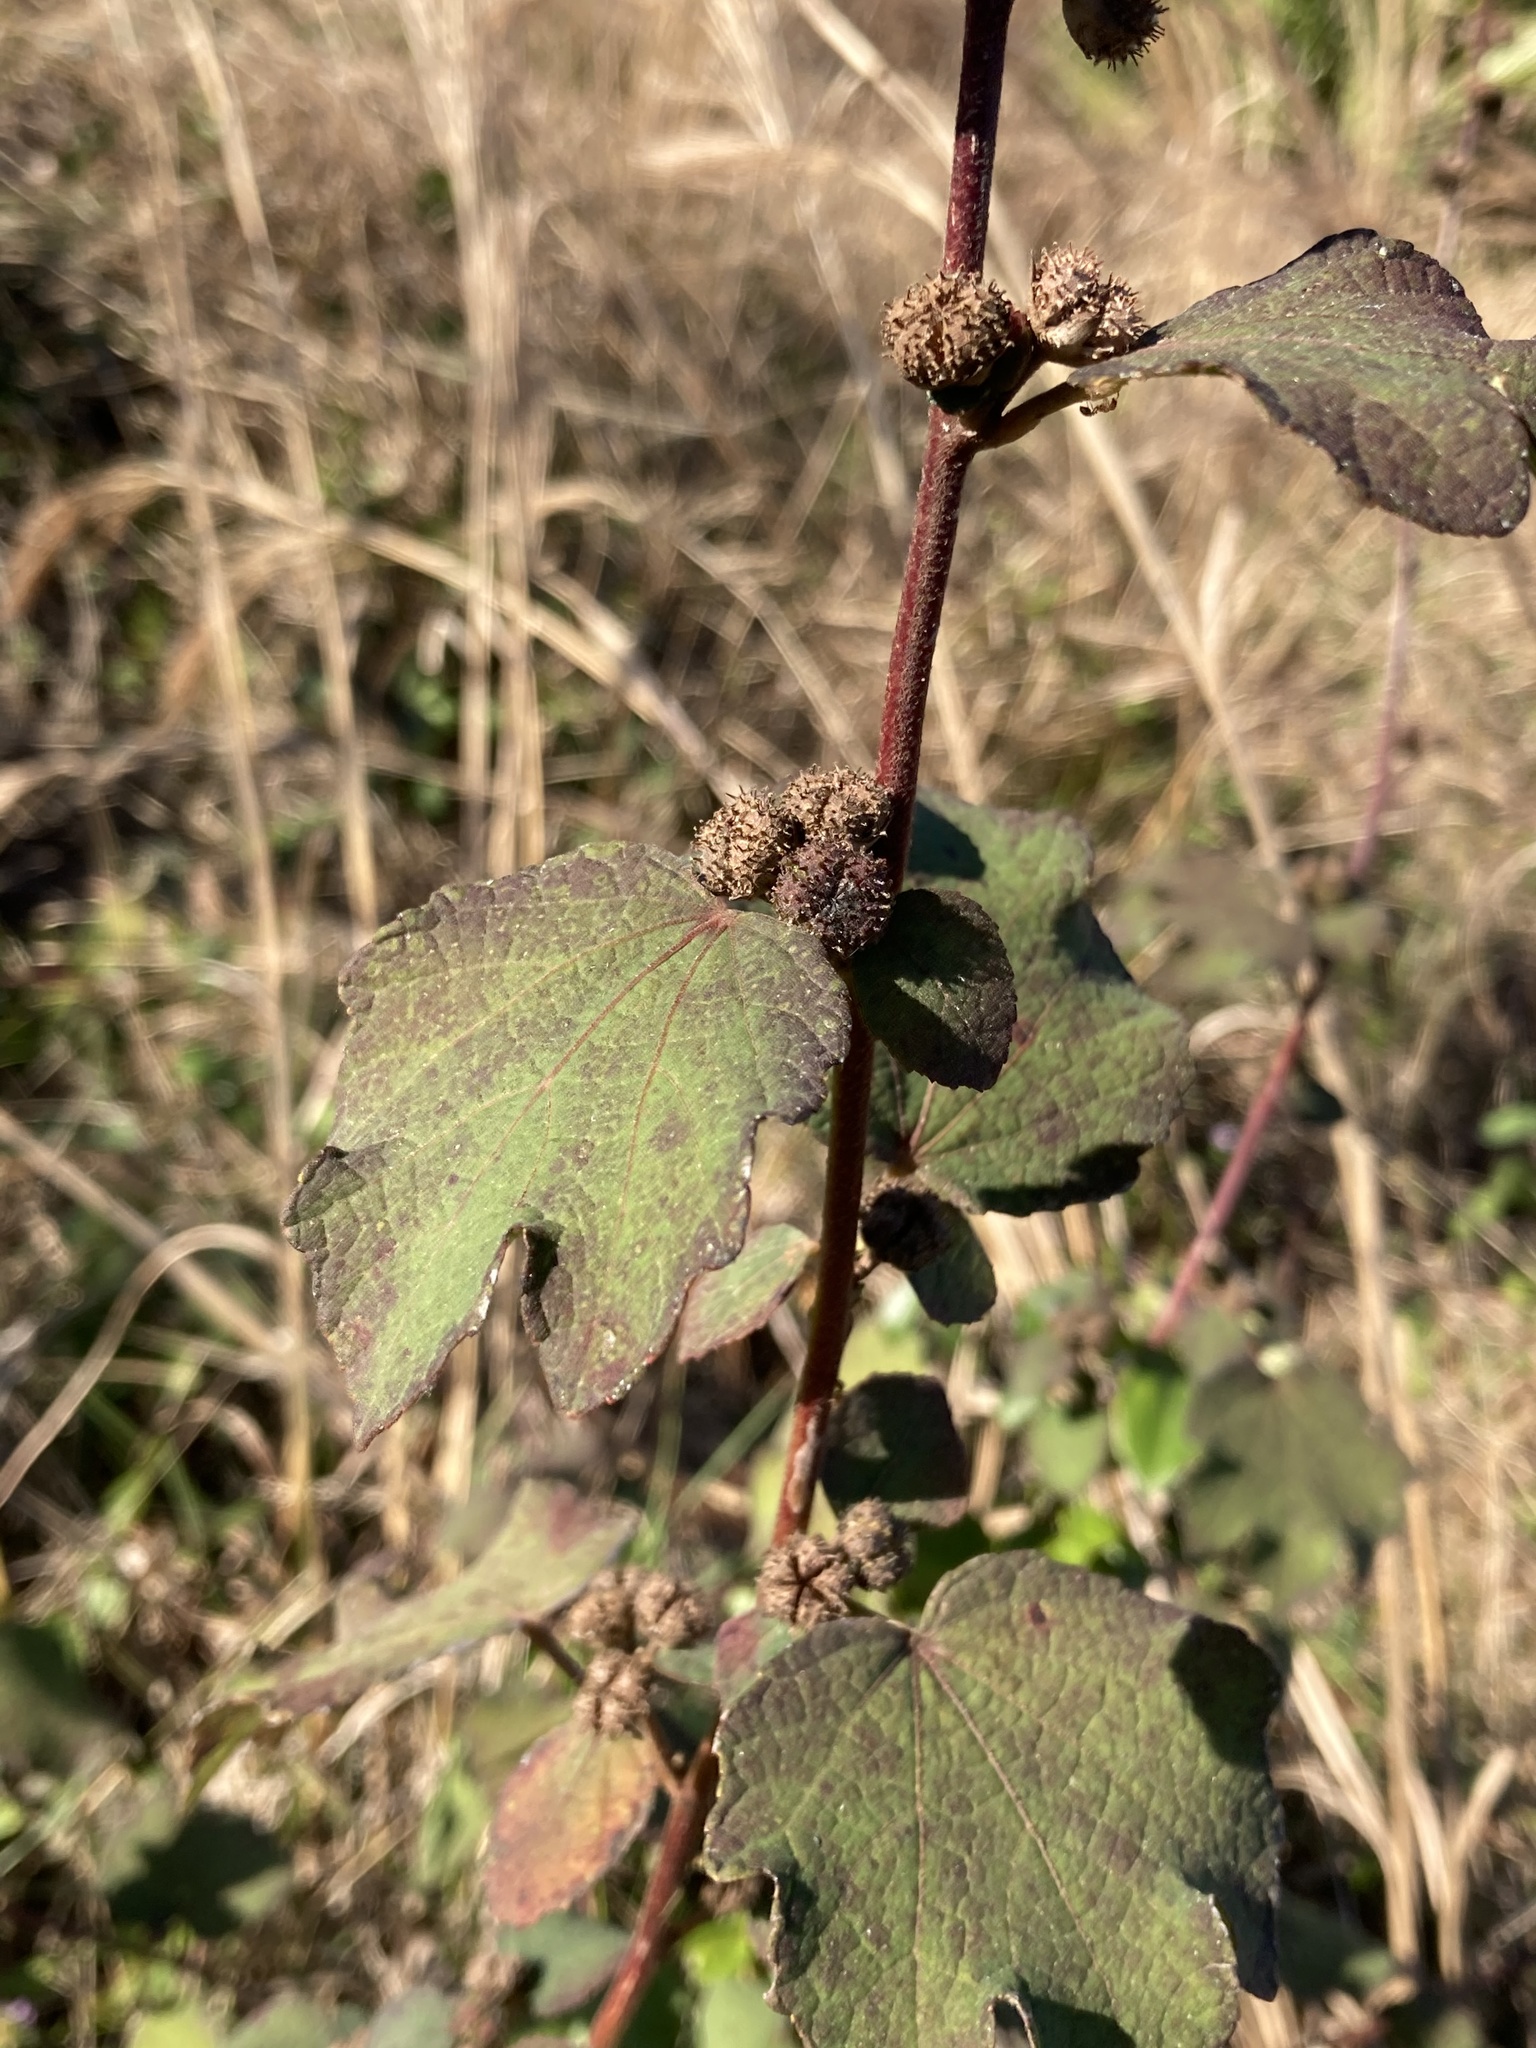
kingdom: Plantae
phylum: Tracheophyta
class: Magnoliopsida
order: Malvales
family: Malvaceae
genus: Urena
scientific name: Urena lobata
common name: Caesarweed
